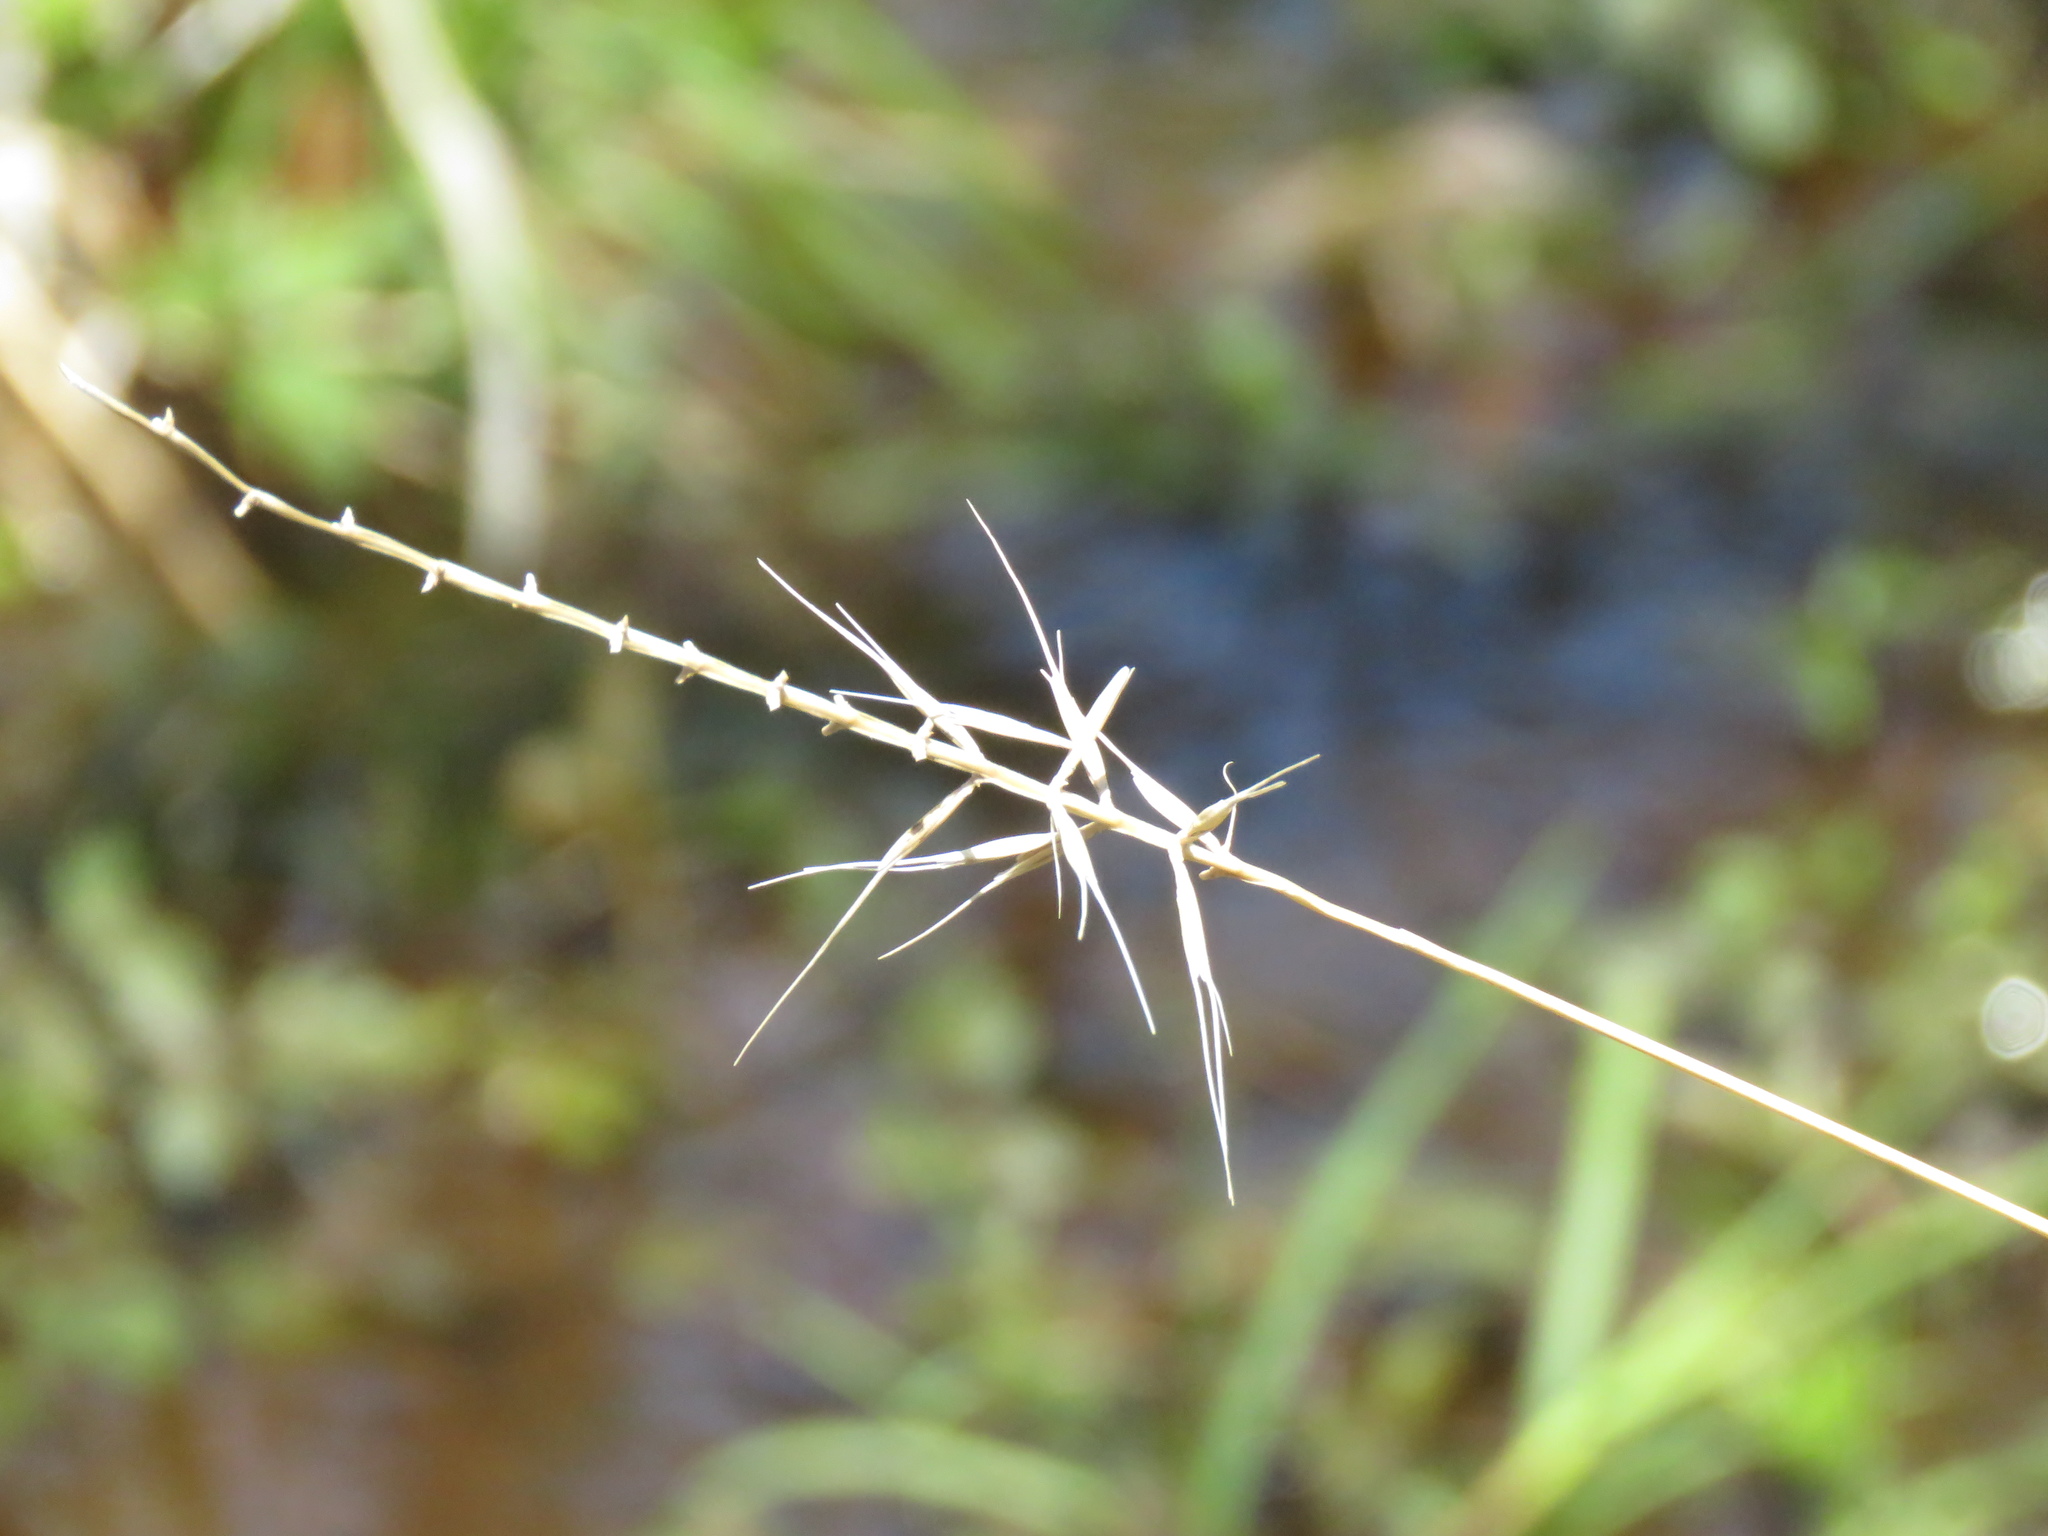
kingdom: Plantae
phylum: Tracheophyta
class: Liliopsida
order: Poales
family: Poaceae
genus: Elymus
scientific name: Elymus hystrix
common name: Bottlebrush grass
